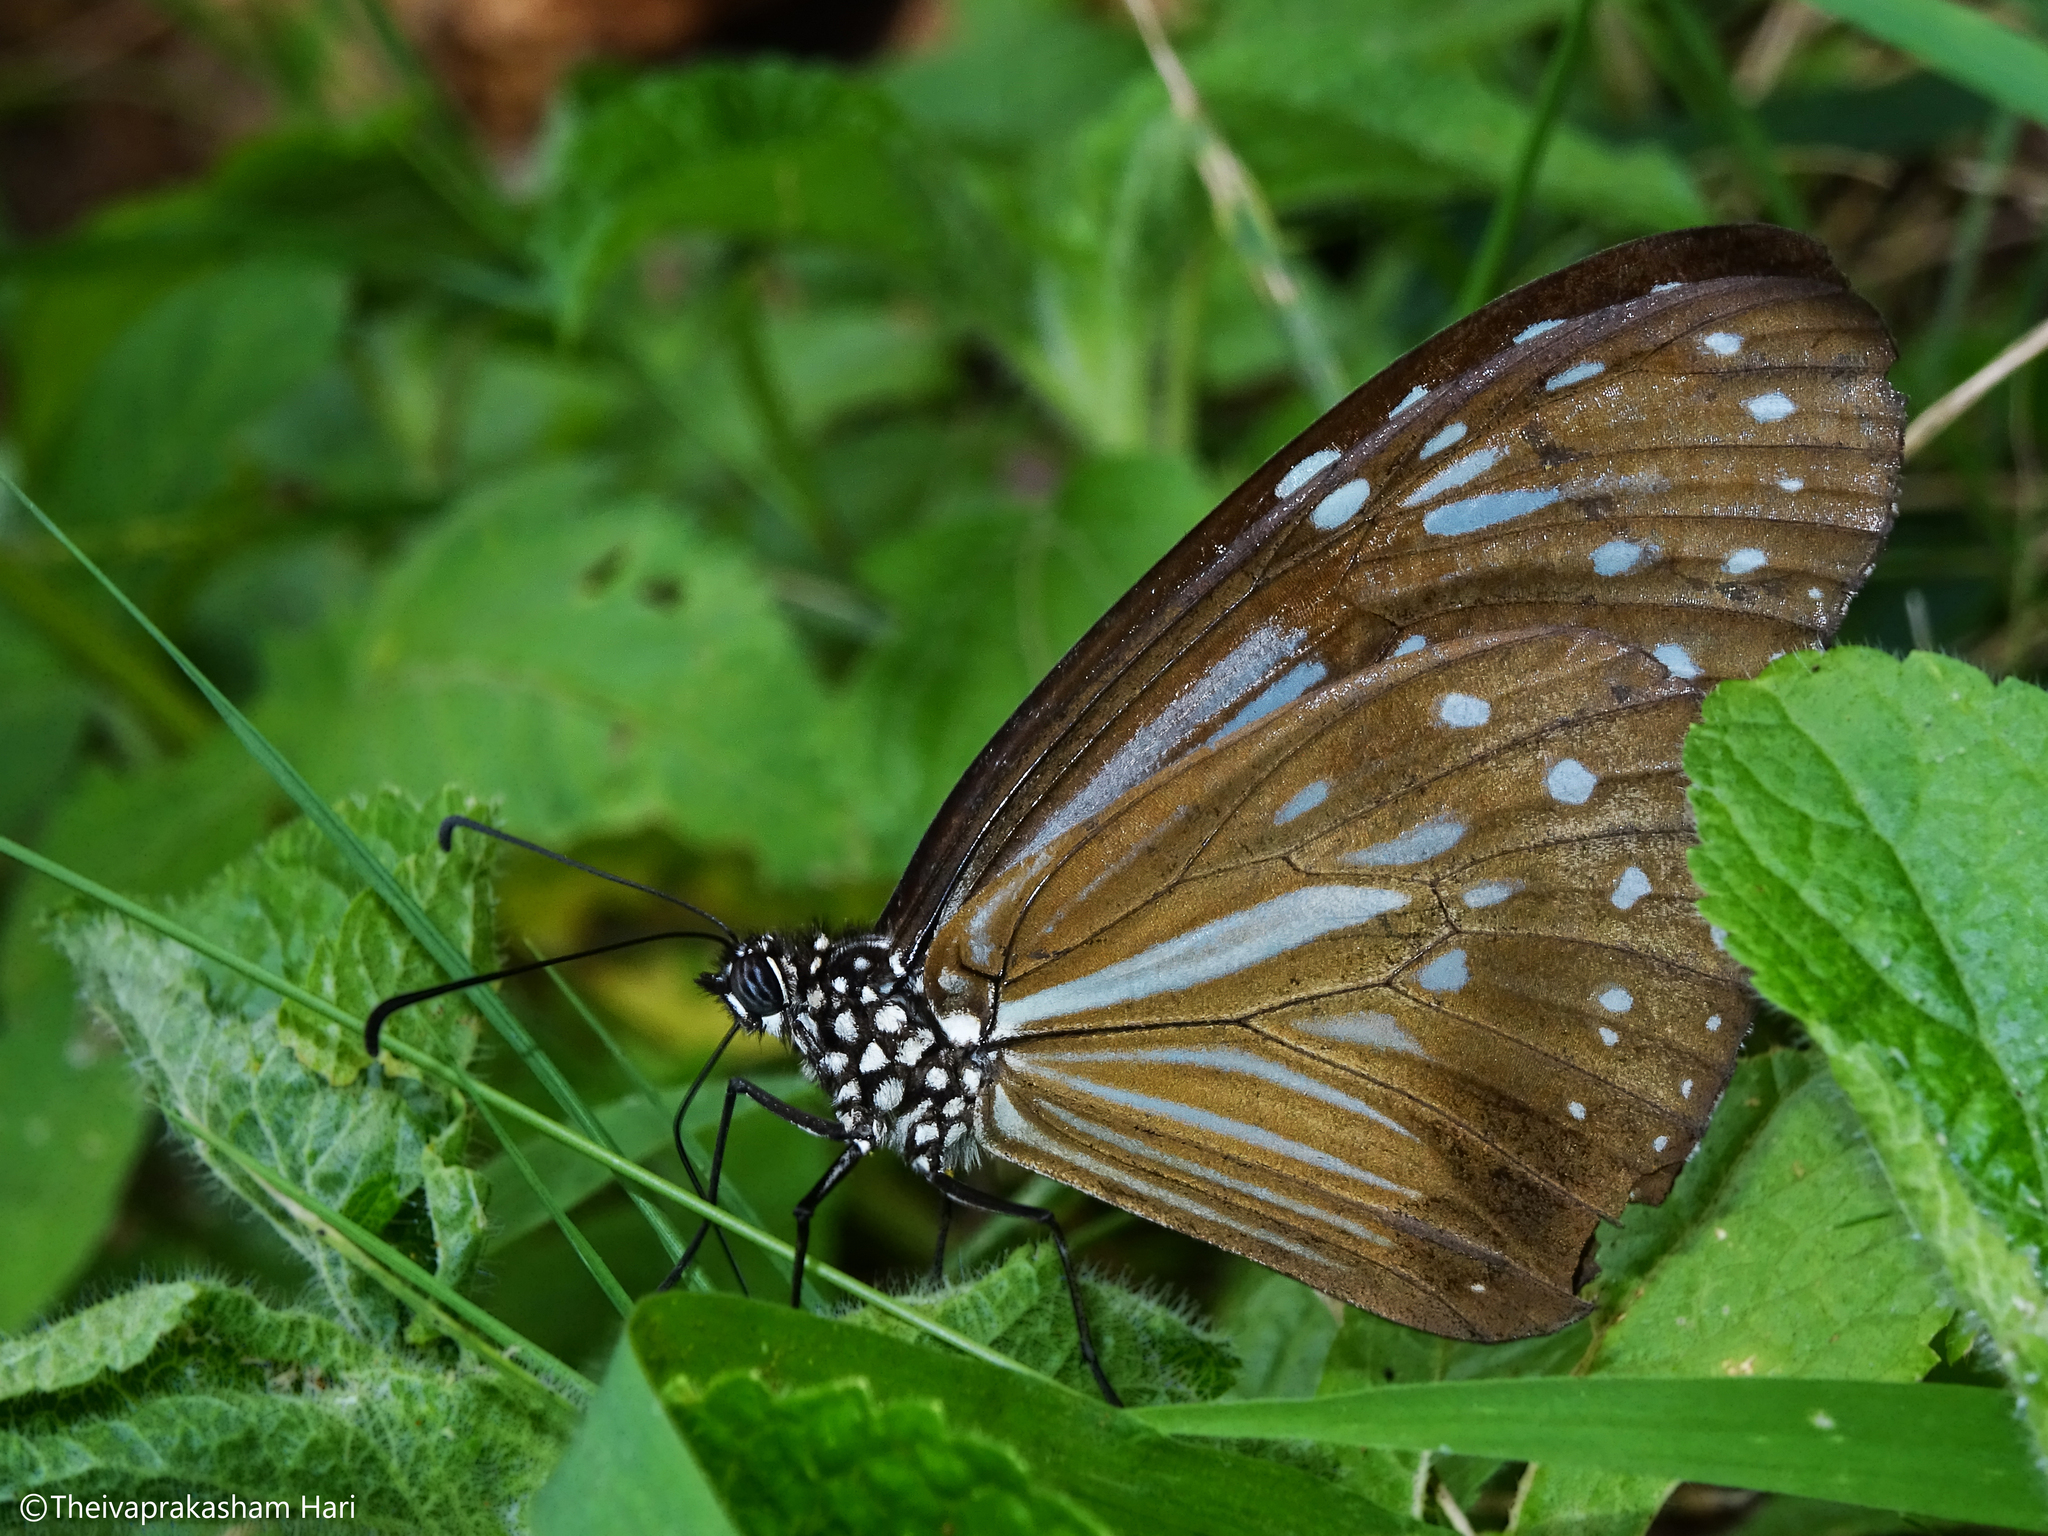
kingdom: Animalia
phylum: Arthropoda
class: Insecta
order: Lepidoptera
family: Nymphalidae
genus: Parantica
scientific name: Parantica nilgiriensis
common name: Nilgiri tiger
